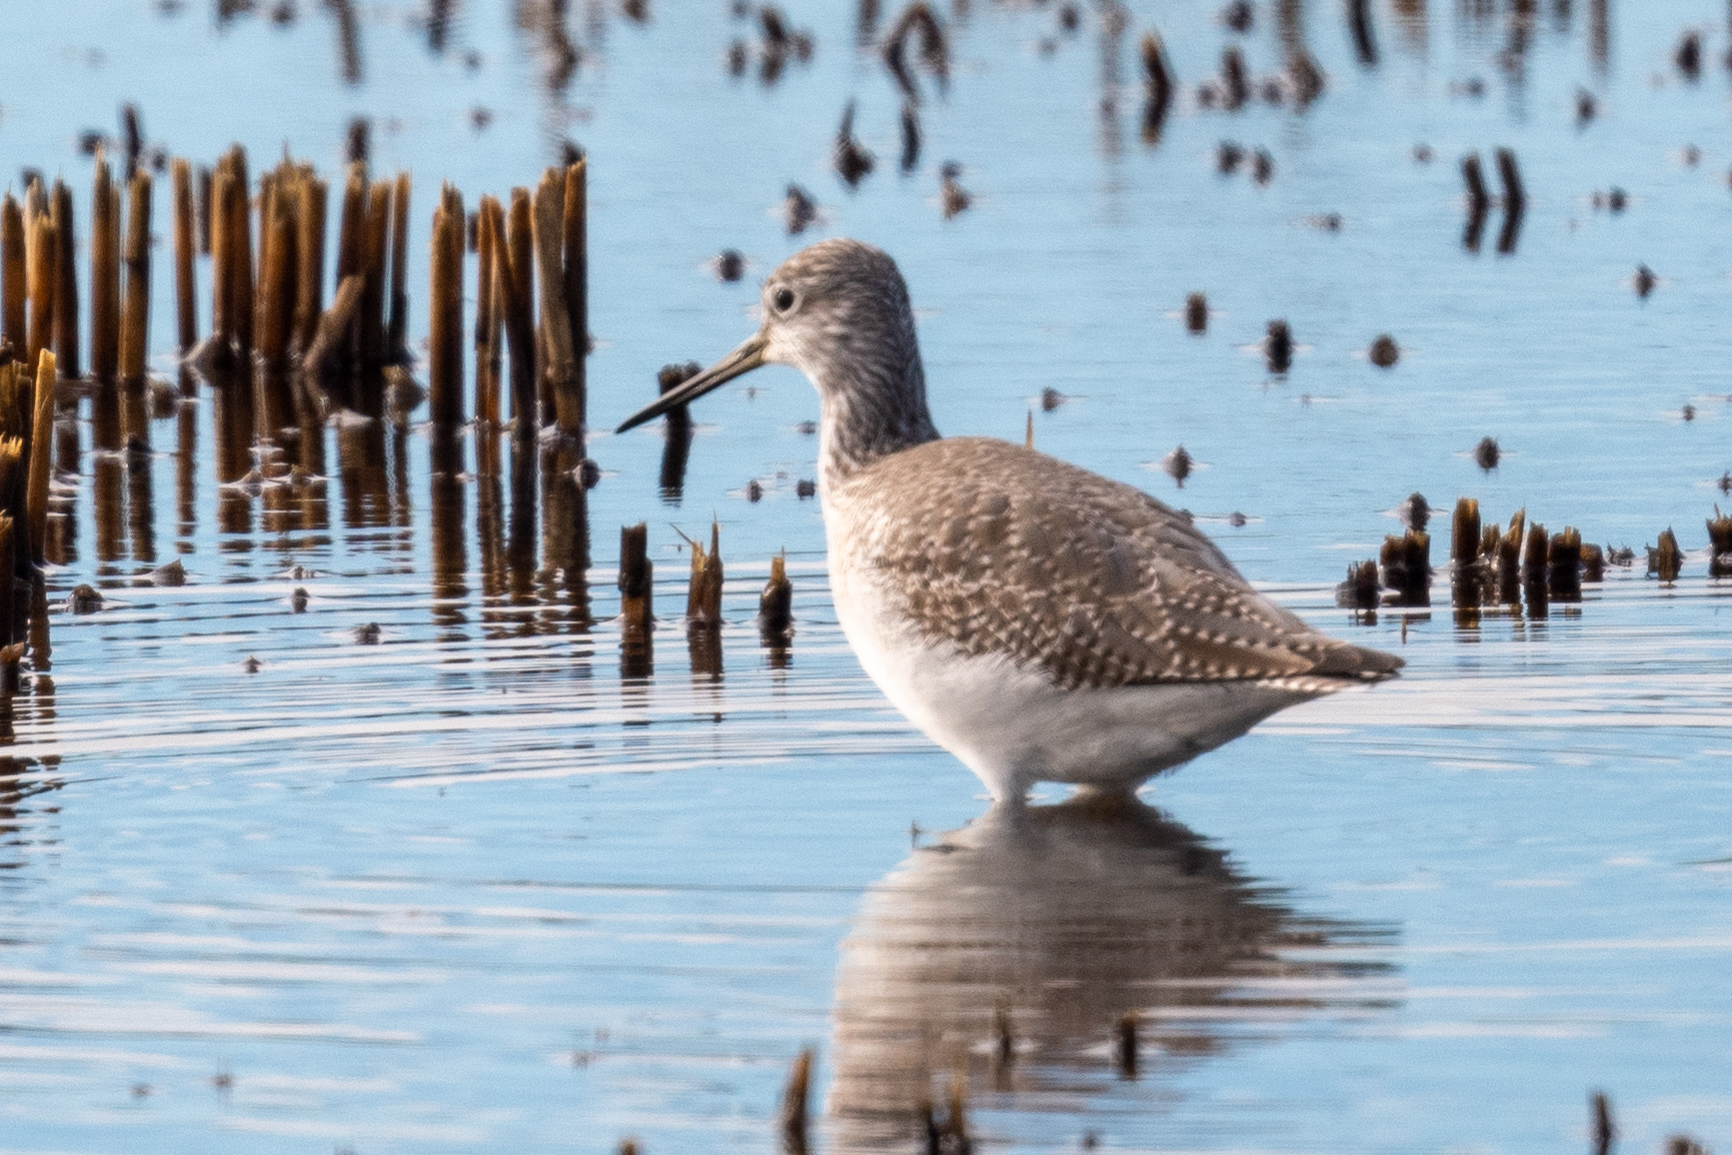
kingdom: Animalia
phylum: Chordata
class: Aves
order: Charadriiformes
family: Scolopacidae
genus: Tringa
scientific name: Tringa melanoleuca
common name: Greater yellowlegs
